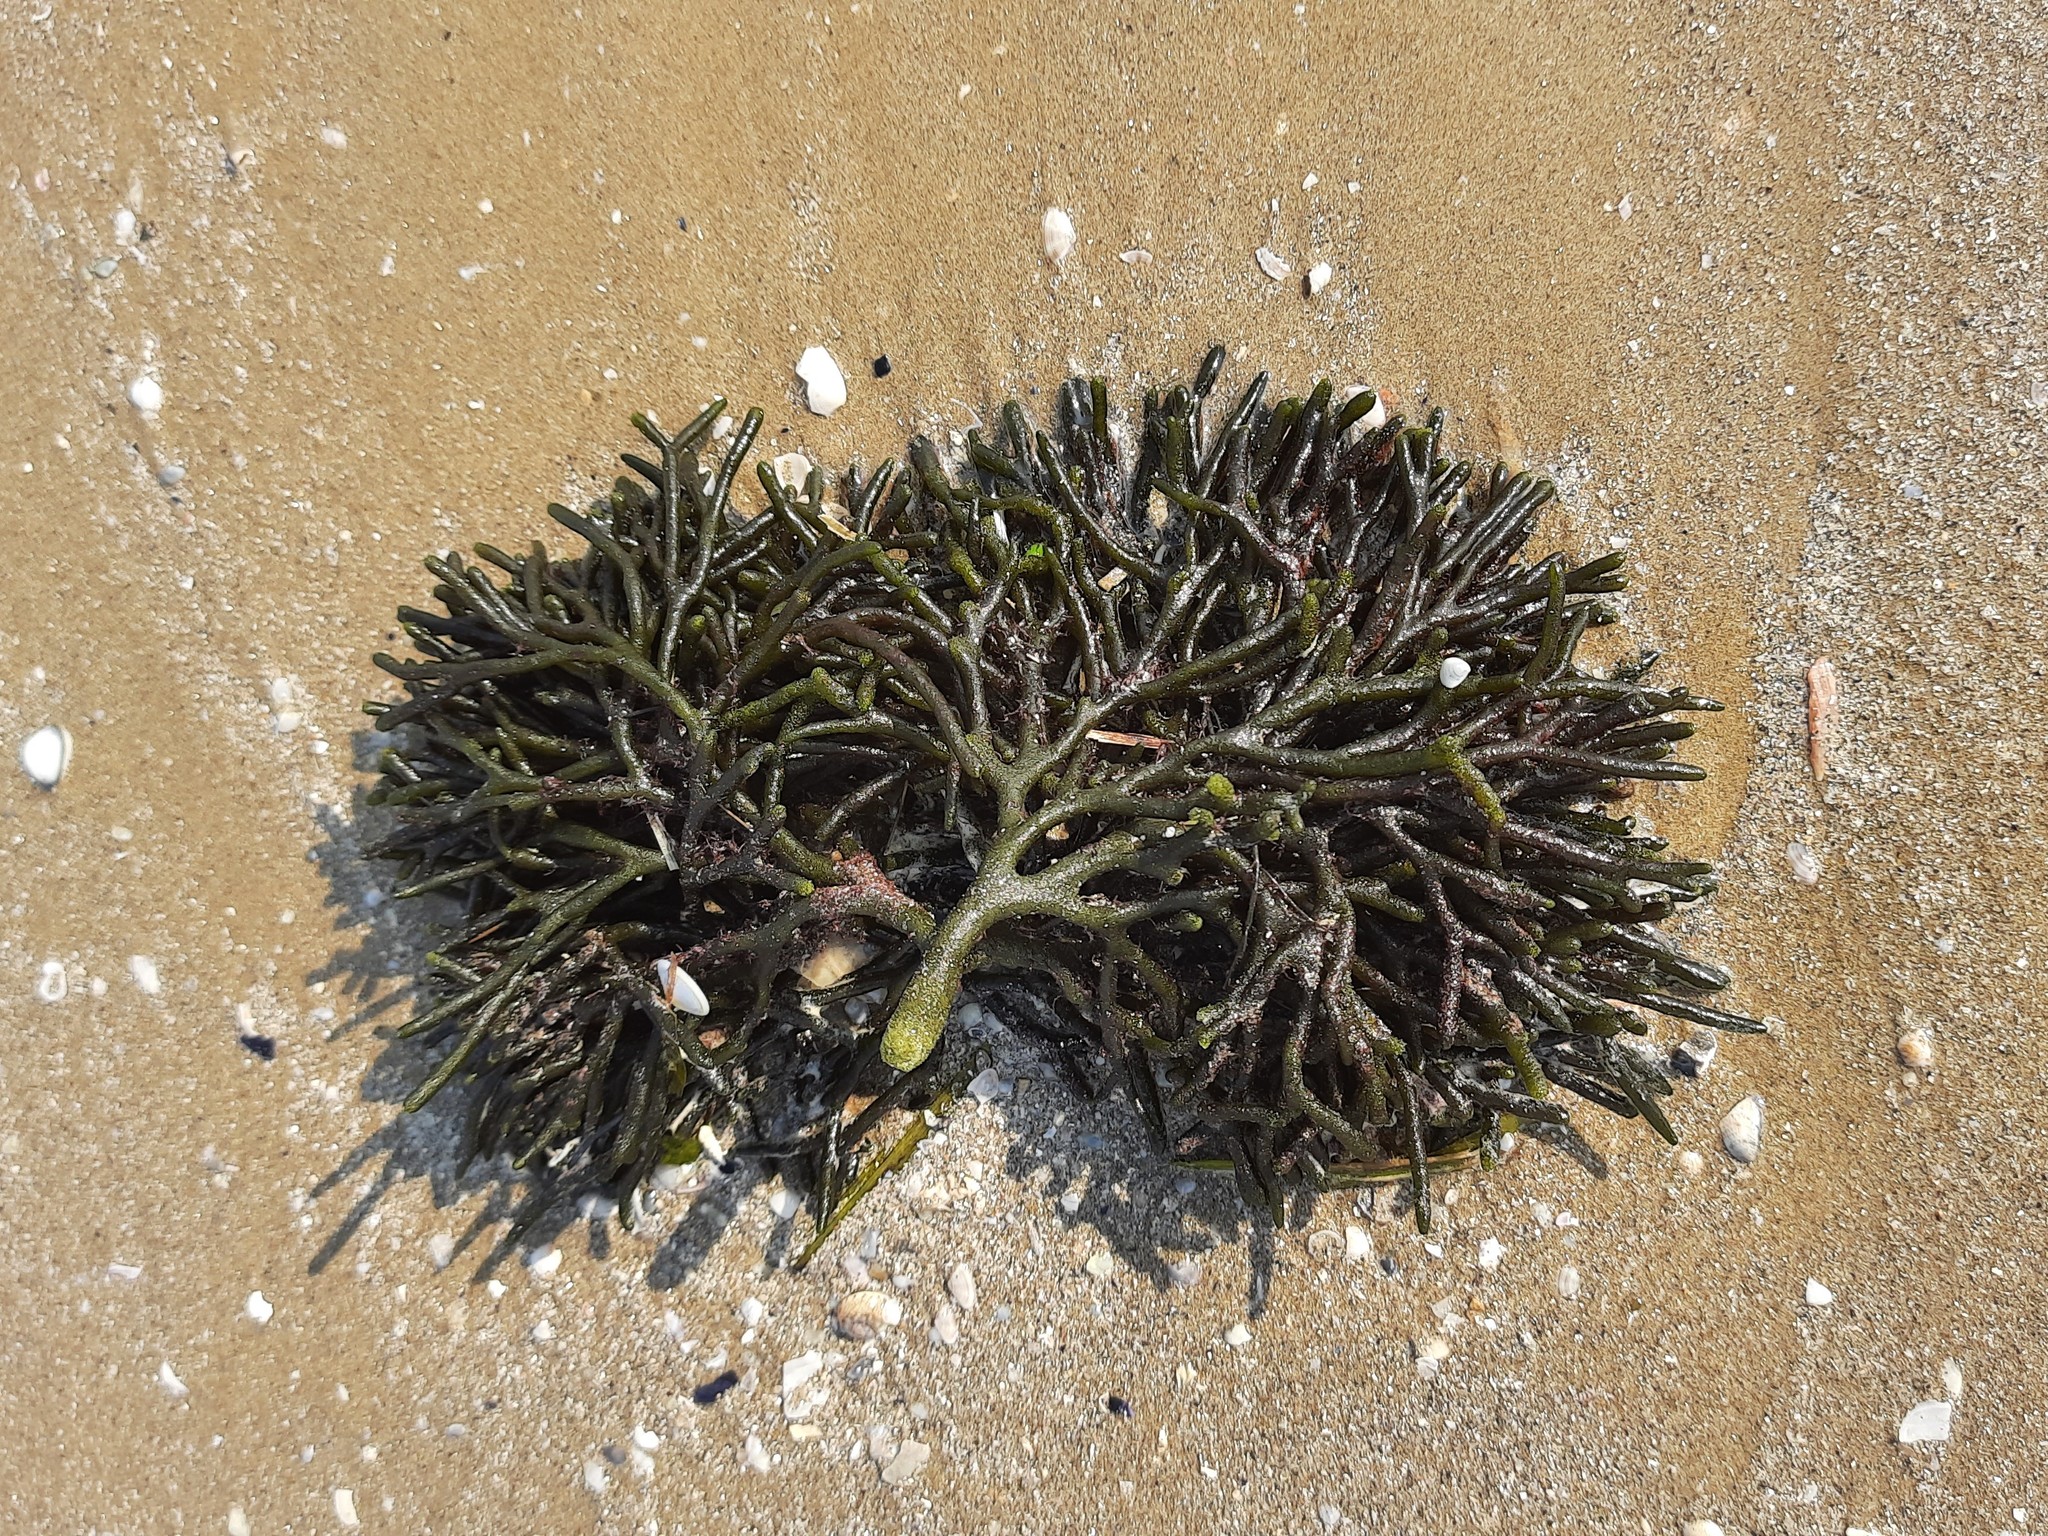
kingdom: Plantae
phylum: Chlorophyta
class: Ulvophyceae
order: Bryopsidales
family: Codiaceae
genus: Codium
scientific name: Codium fragile
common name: Dead man's fingers
